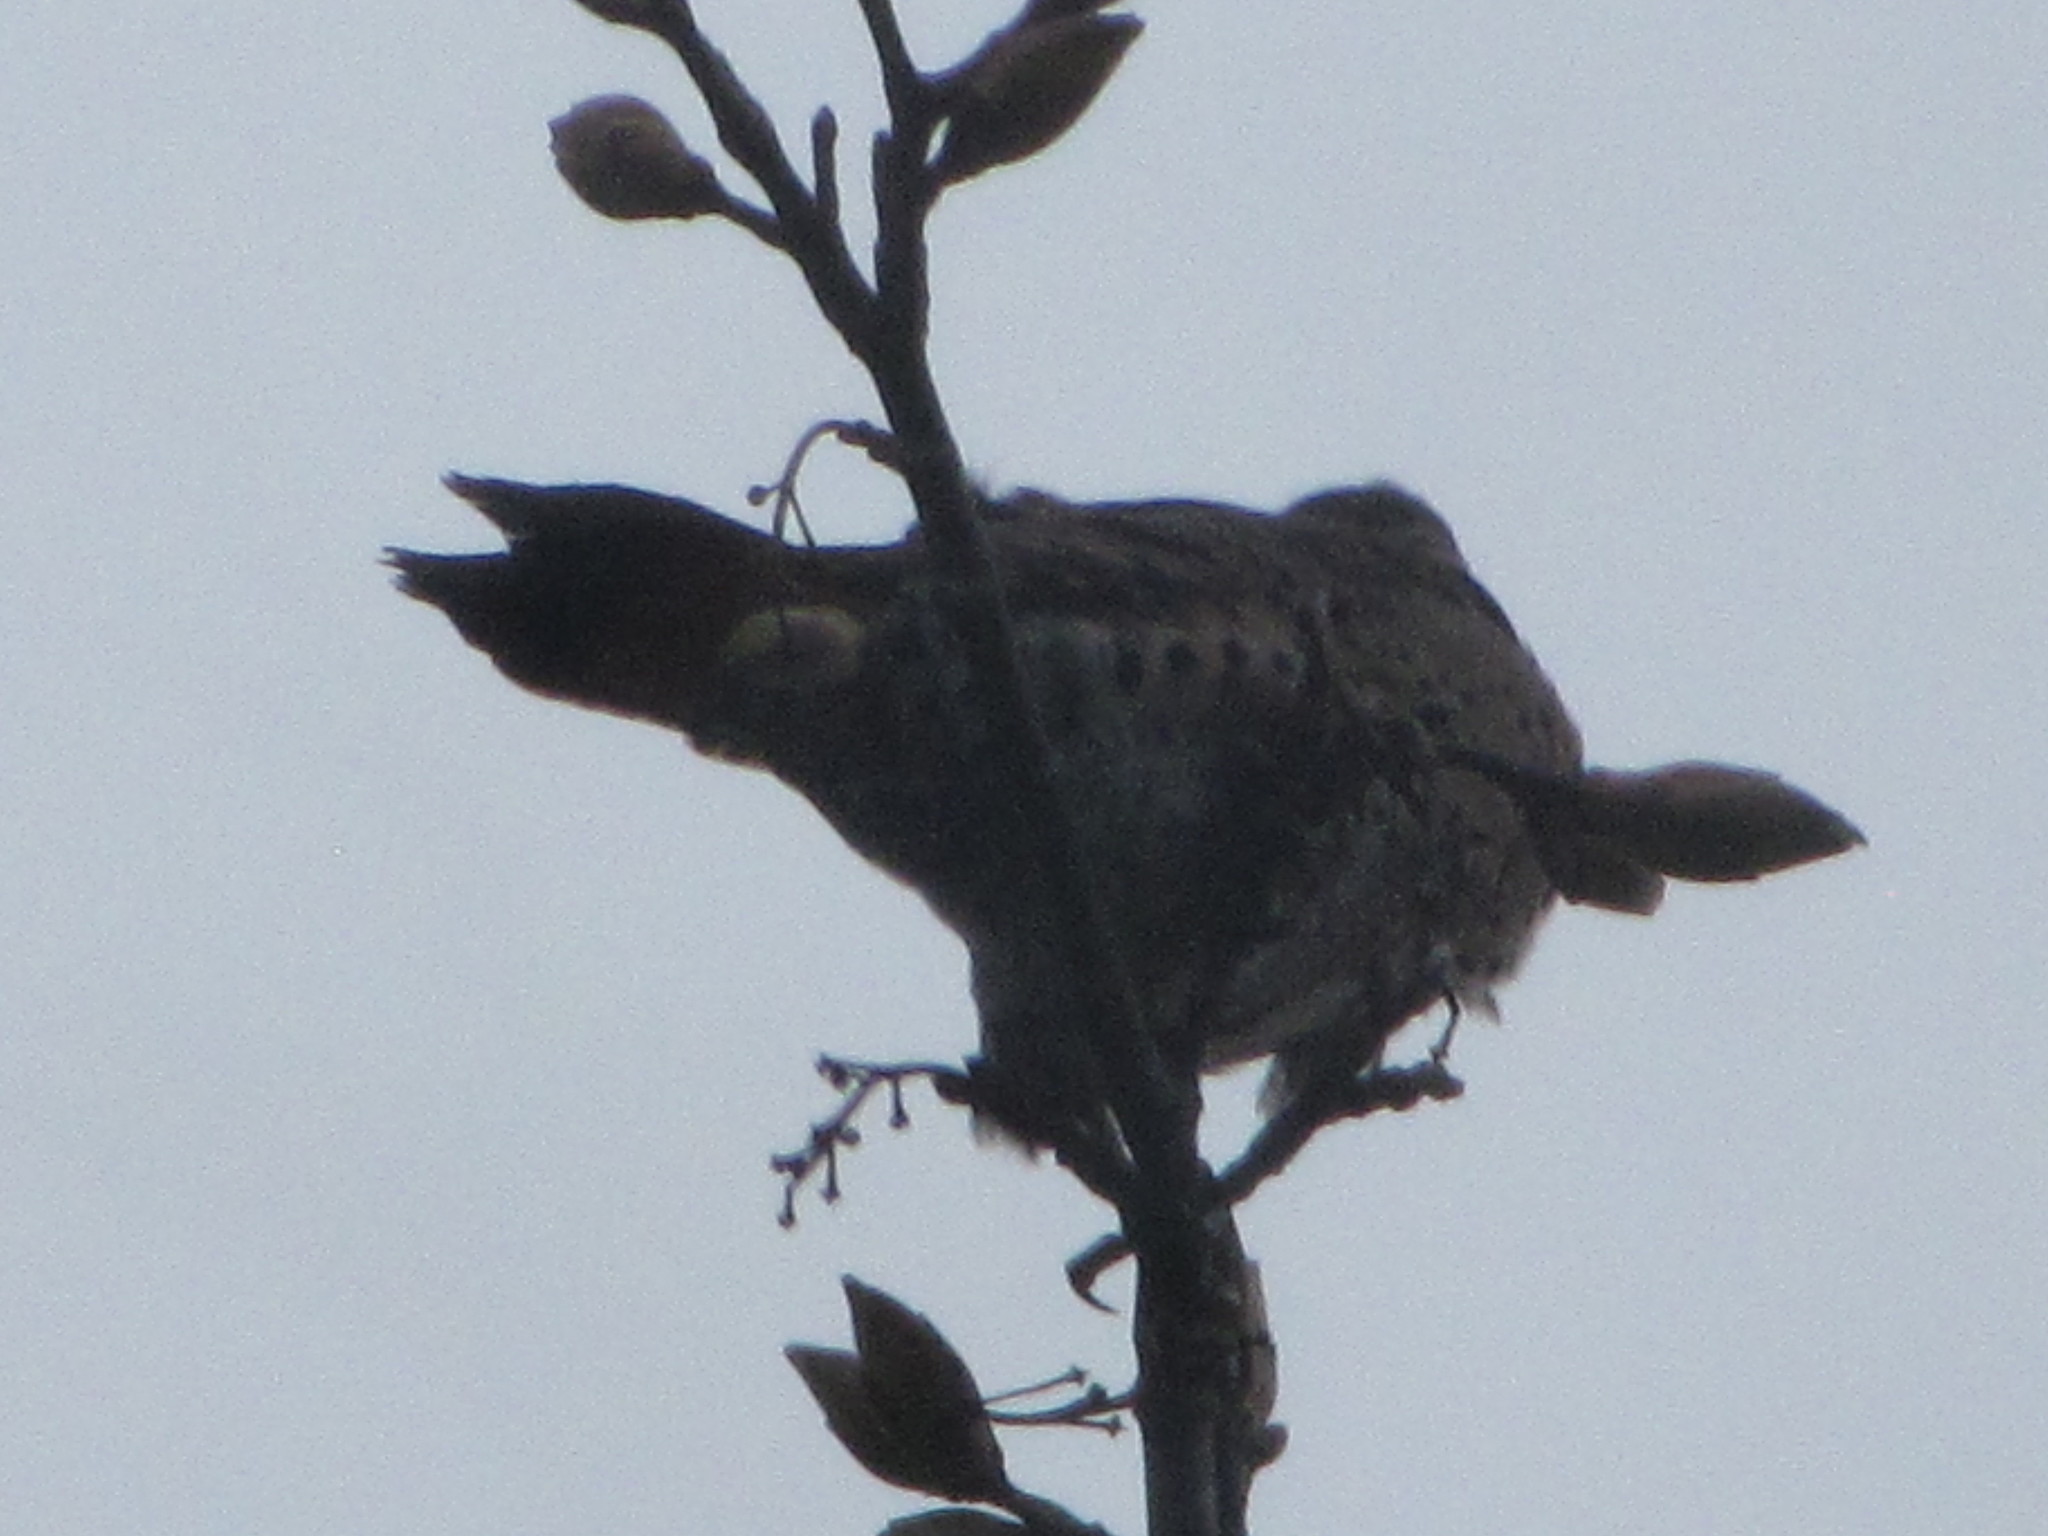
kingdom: Animalia
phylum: Chordata
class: Aves
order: Piciformes
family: Picidae
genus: Colaptes
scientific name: Colaptes auratus
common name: Northern flicker
